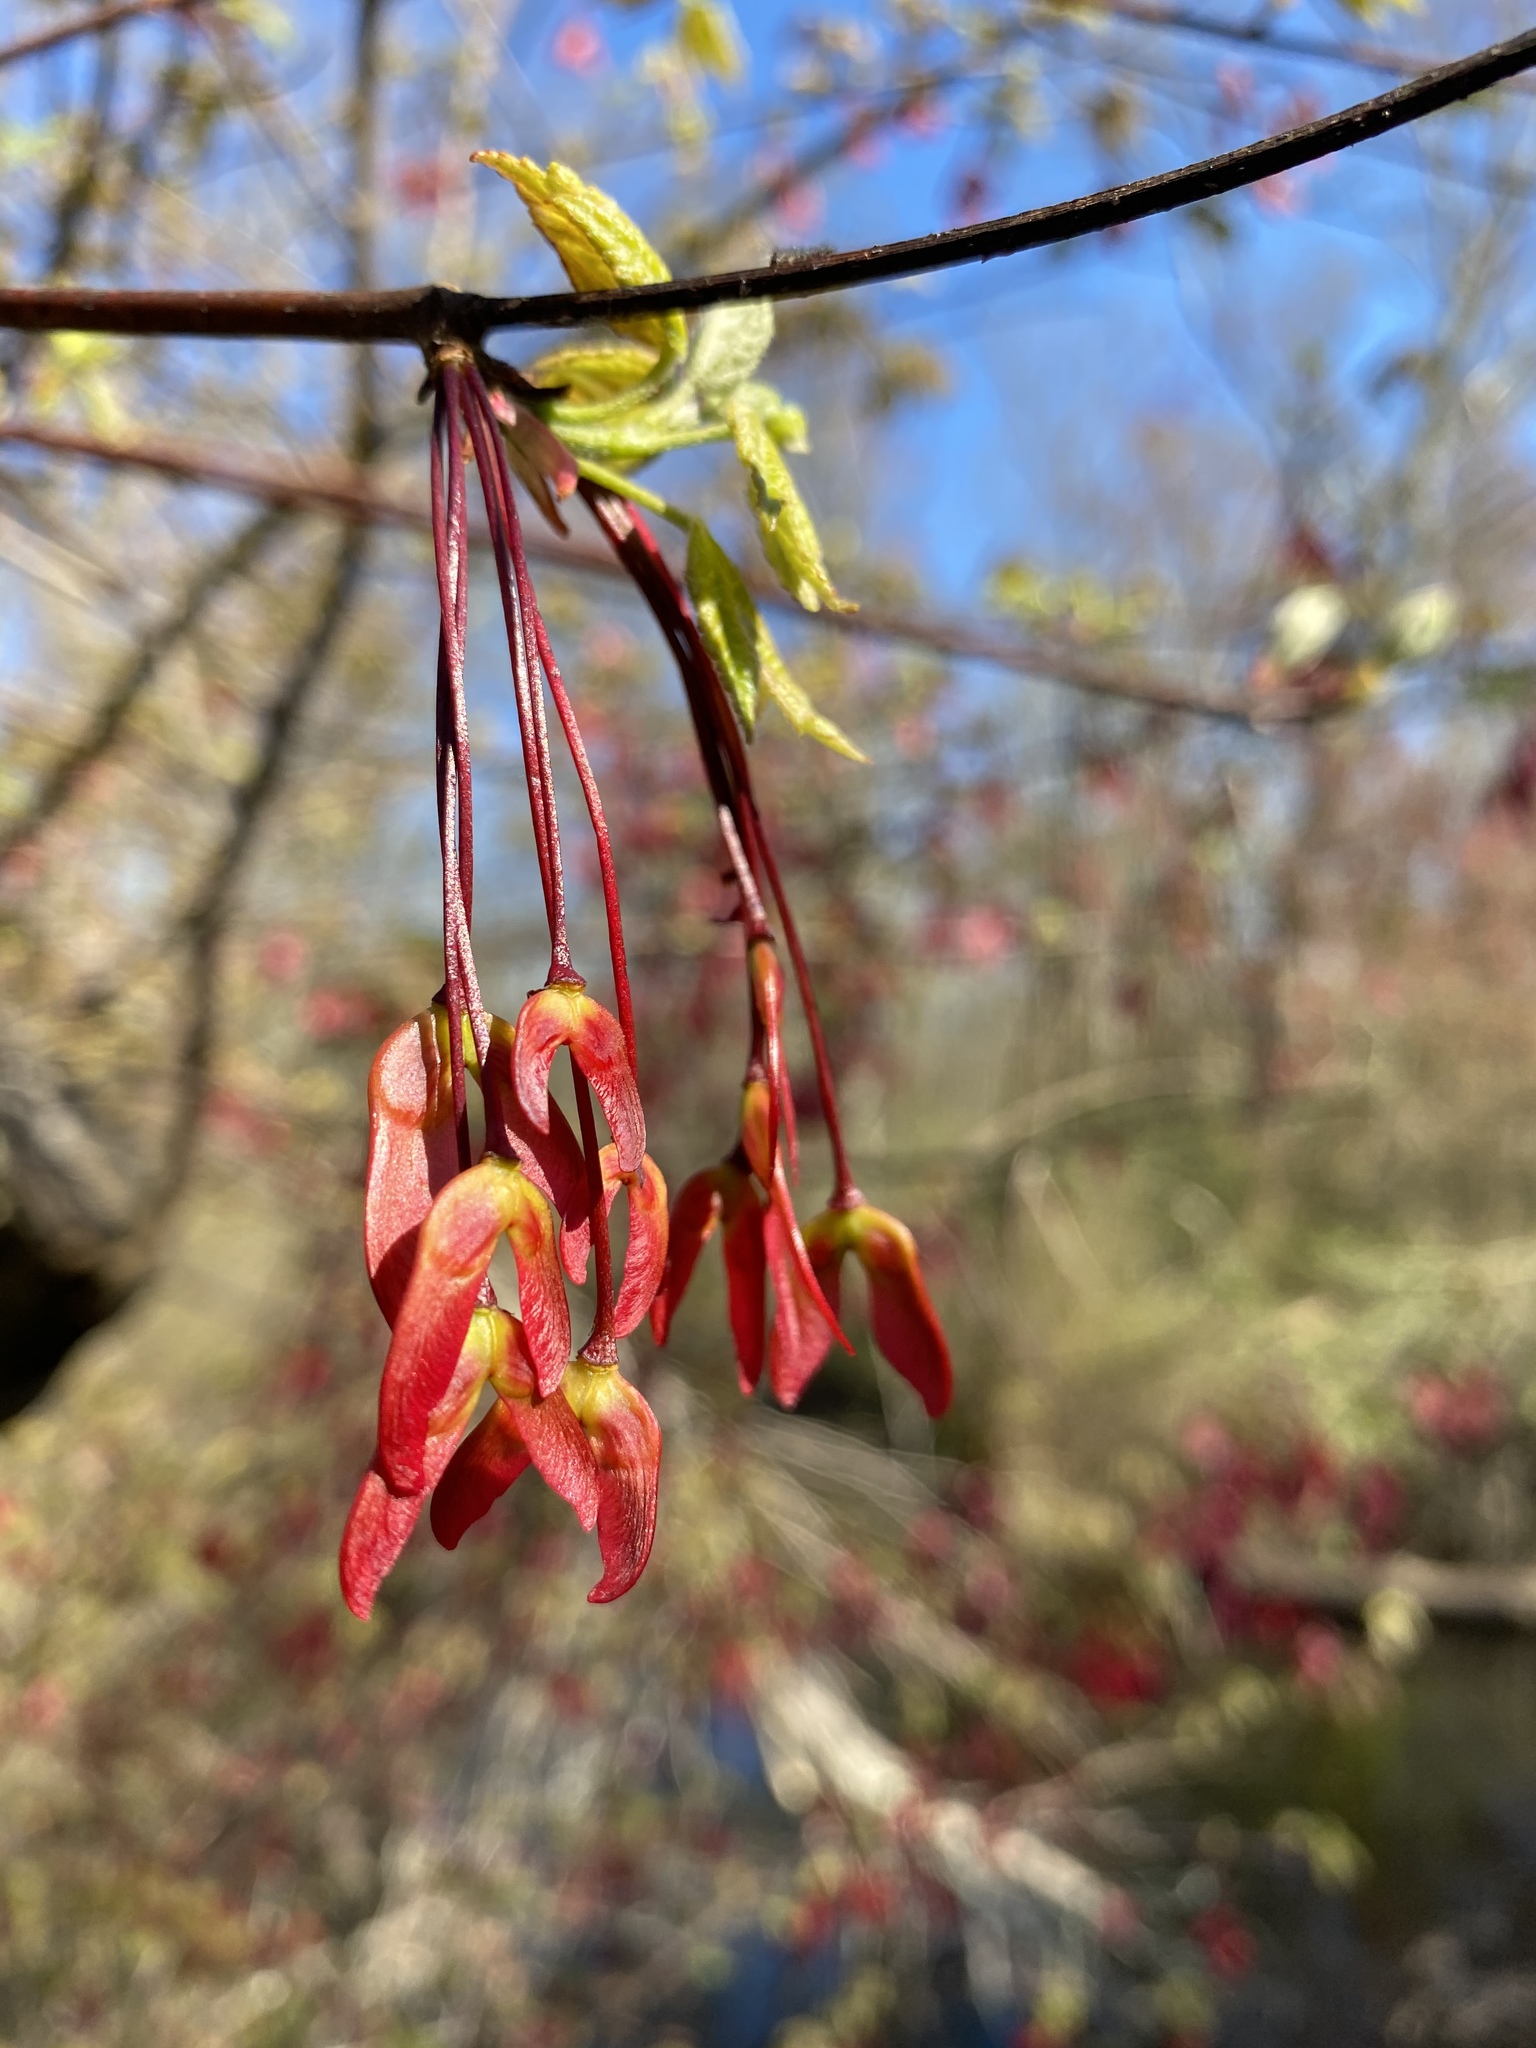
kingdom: Plantae
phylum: Tracheophyta
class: Magnoliopsida
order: Sapindales
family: Sapindaceae
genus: Acer
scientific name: Acer rubrum
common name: Red maple
